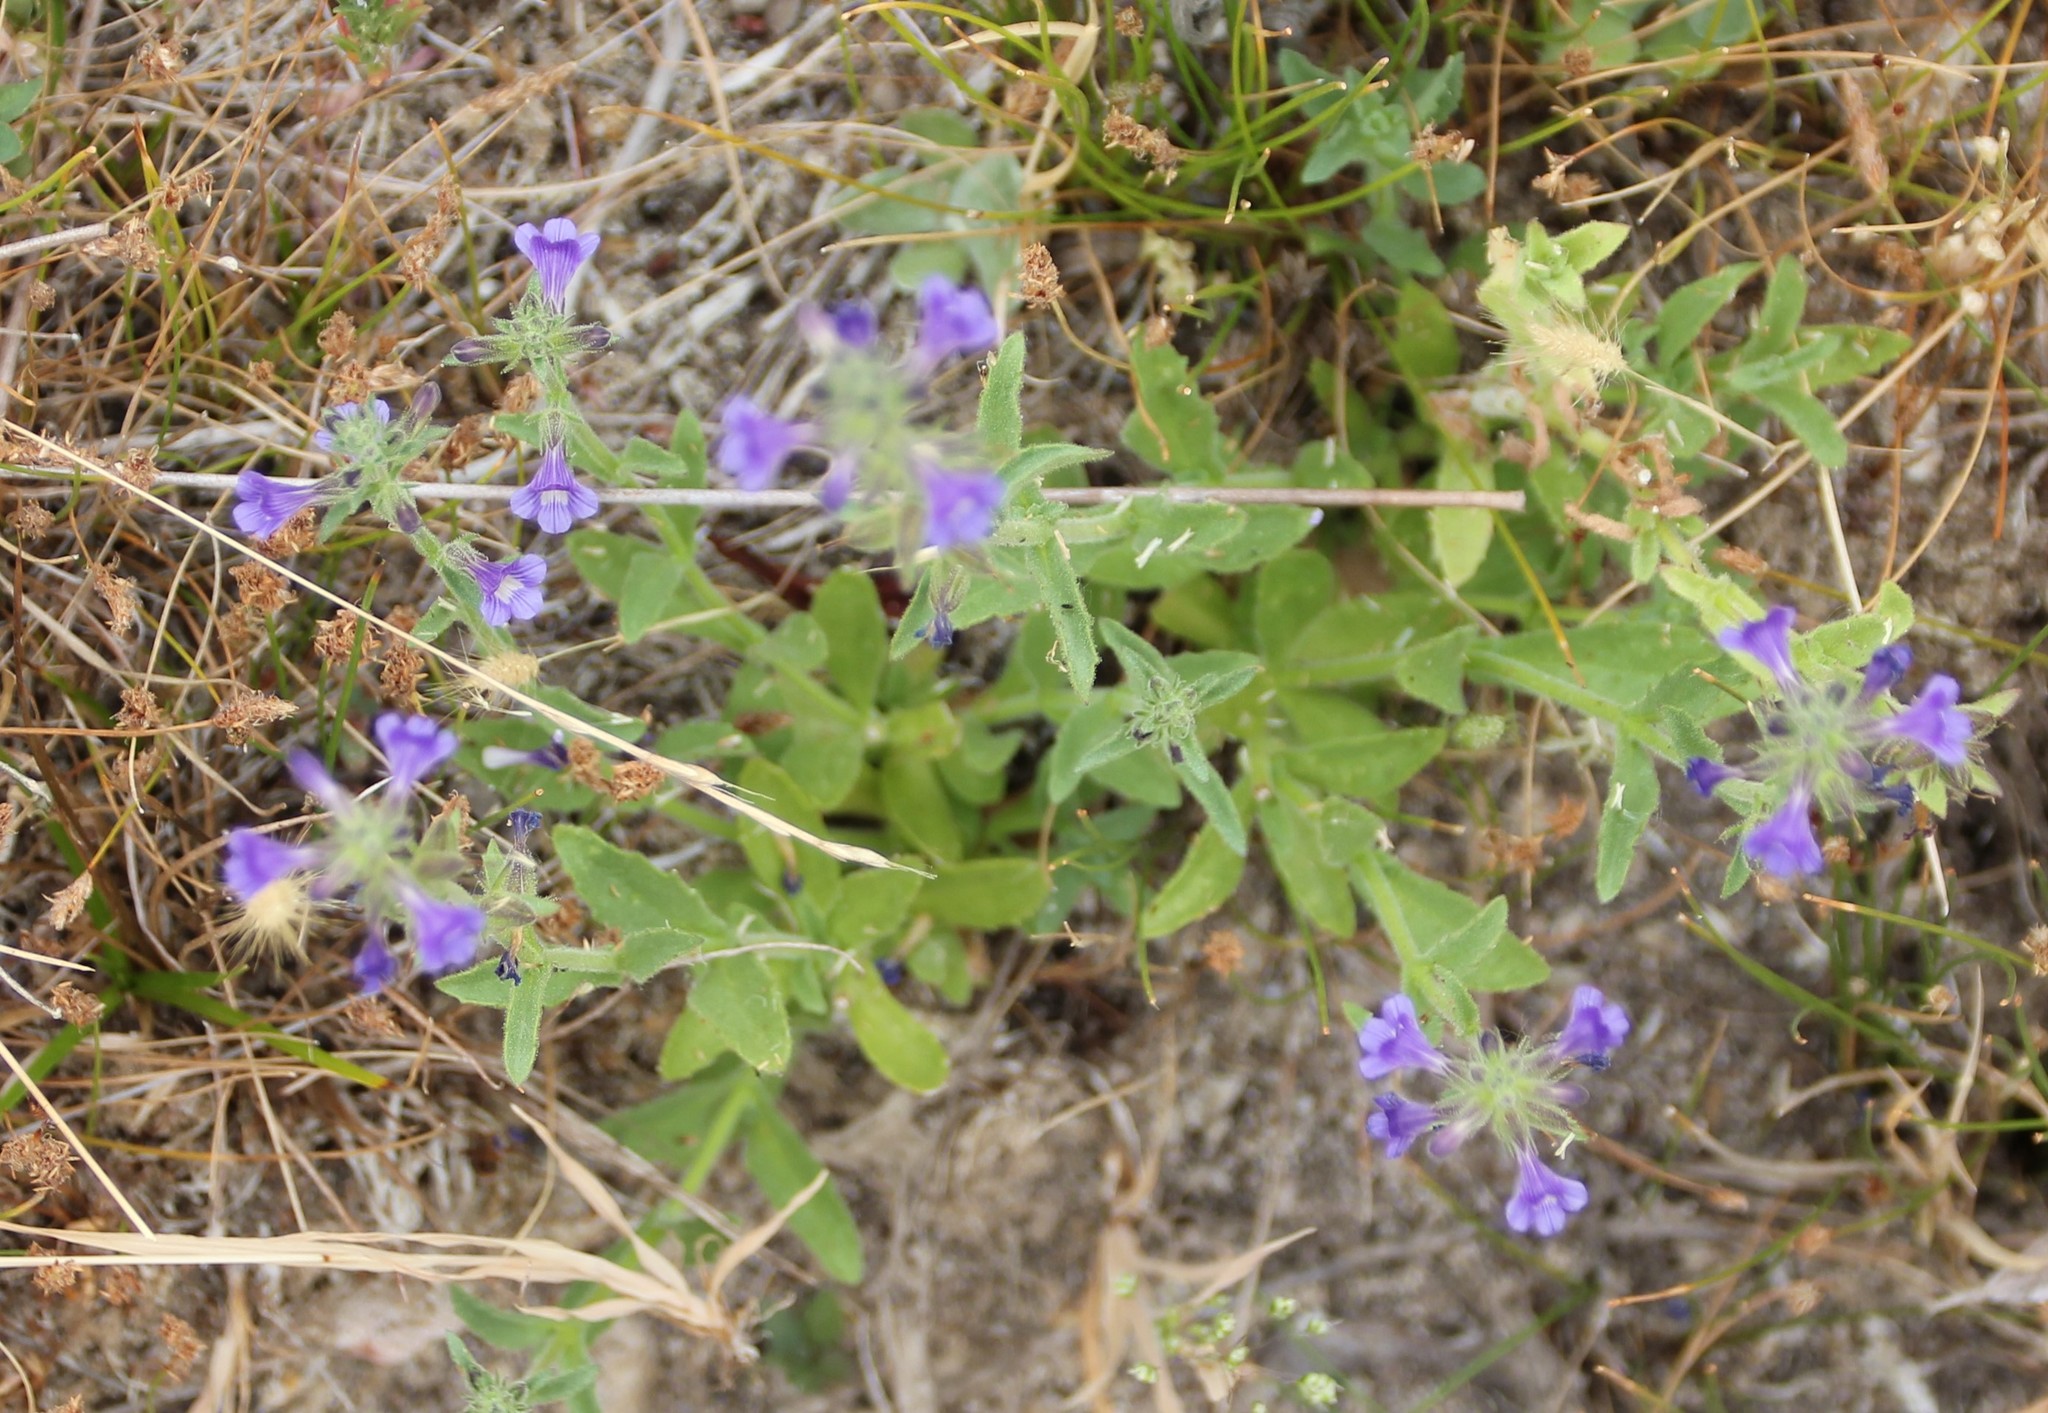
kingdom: Plantae
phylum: Tracheophyta
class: Magnoliopsida
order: Lamiales
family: Plantaginaceae
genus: Stemodia
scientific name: Stemodia durantifolia
